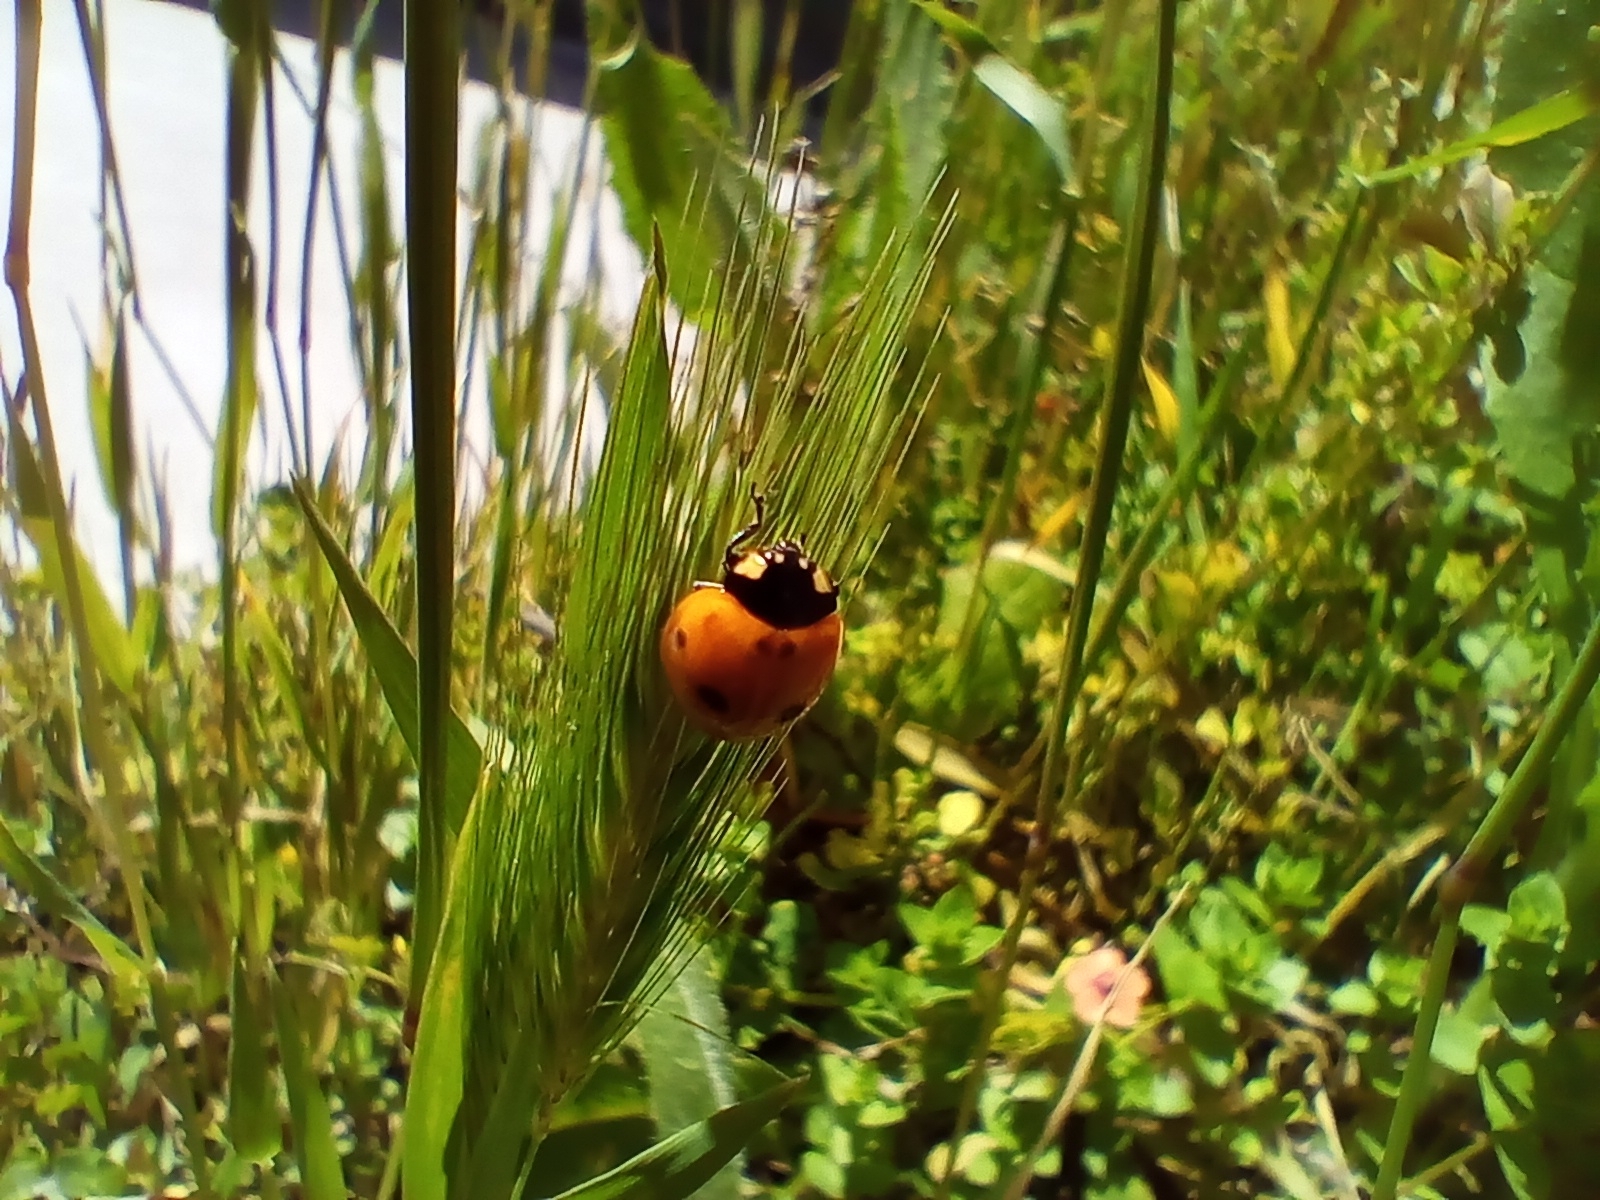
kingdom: Animalia
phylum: Arthropoda
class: Insecta
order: Coleoptera
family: Coccinellidae
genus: Coccinella
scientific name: Coccinella septempunctata
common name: Sevenspotted lady beetle
